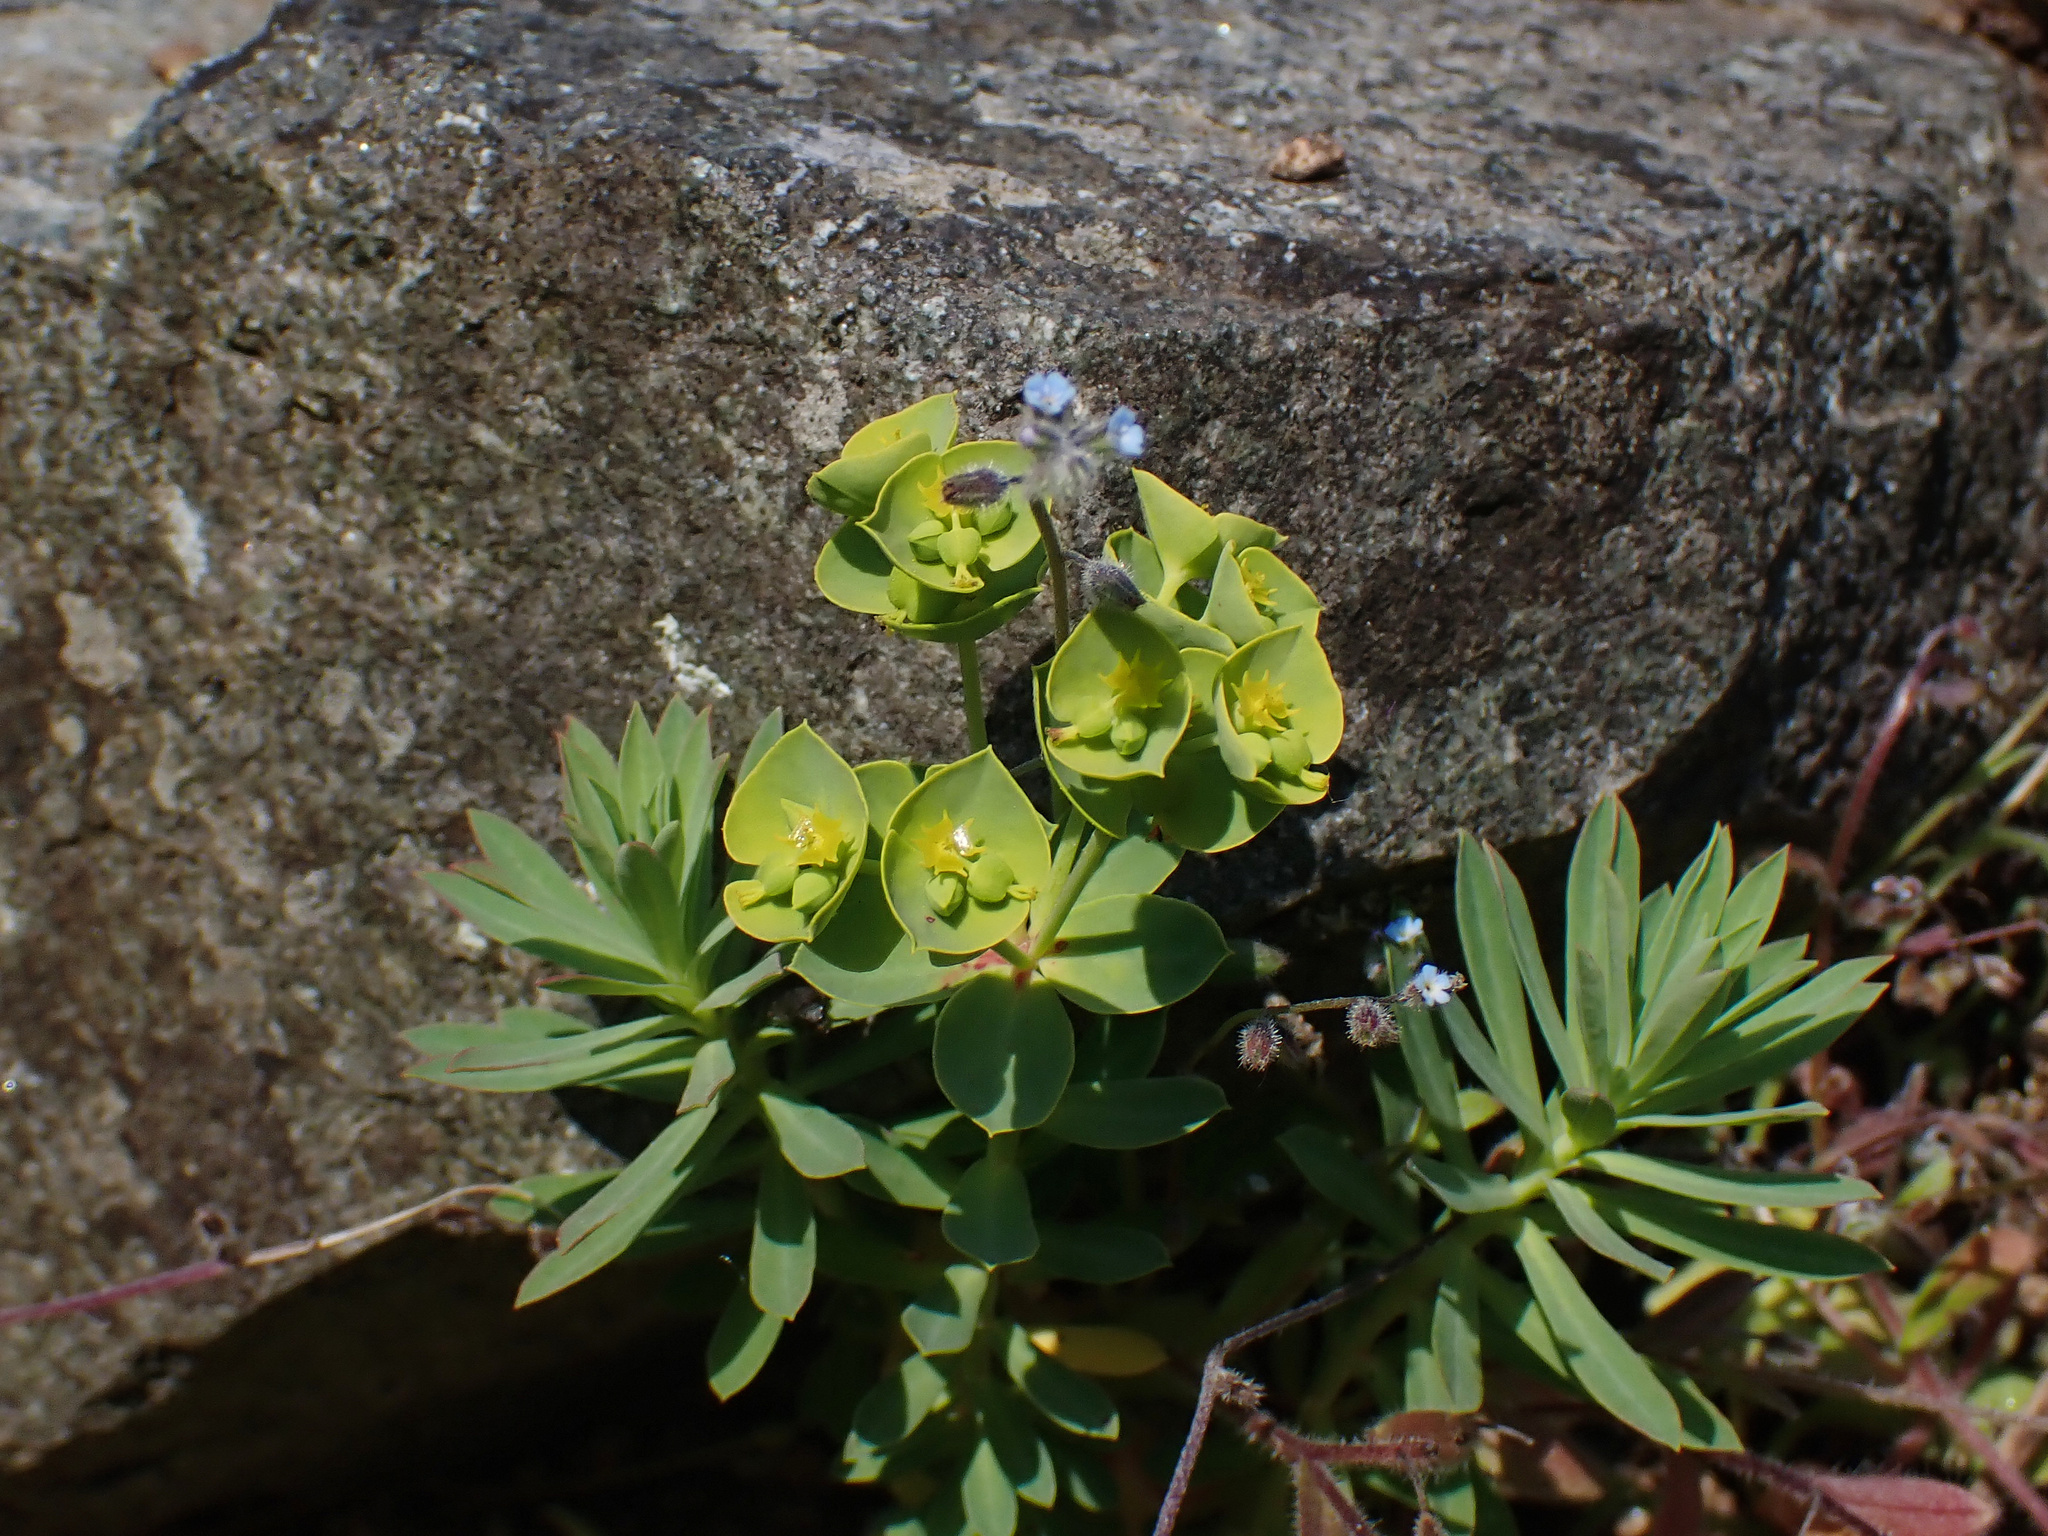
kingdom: Plantae
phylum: Tracheophyta
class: Magnoliopsida
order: Malpighiales
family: Euphorbiaceae
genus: Euphorbia
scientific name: Euphorbia portlandica
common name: Portland spurge
